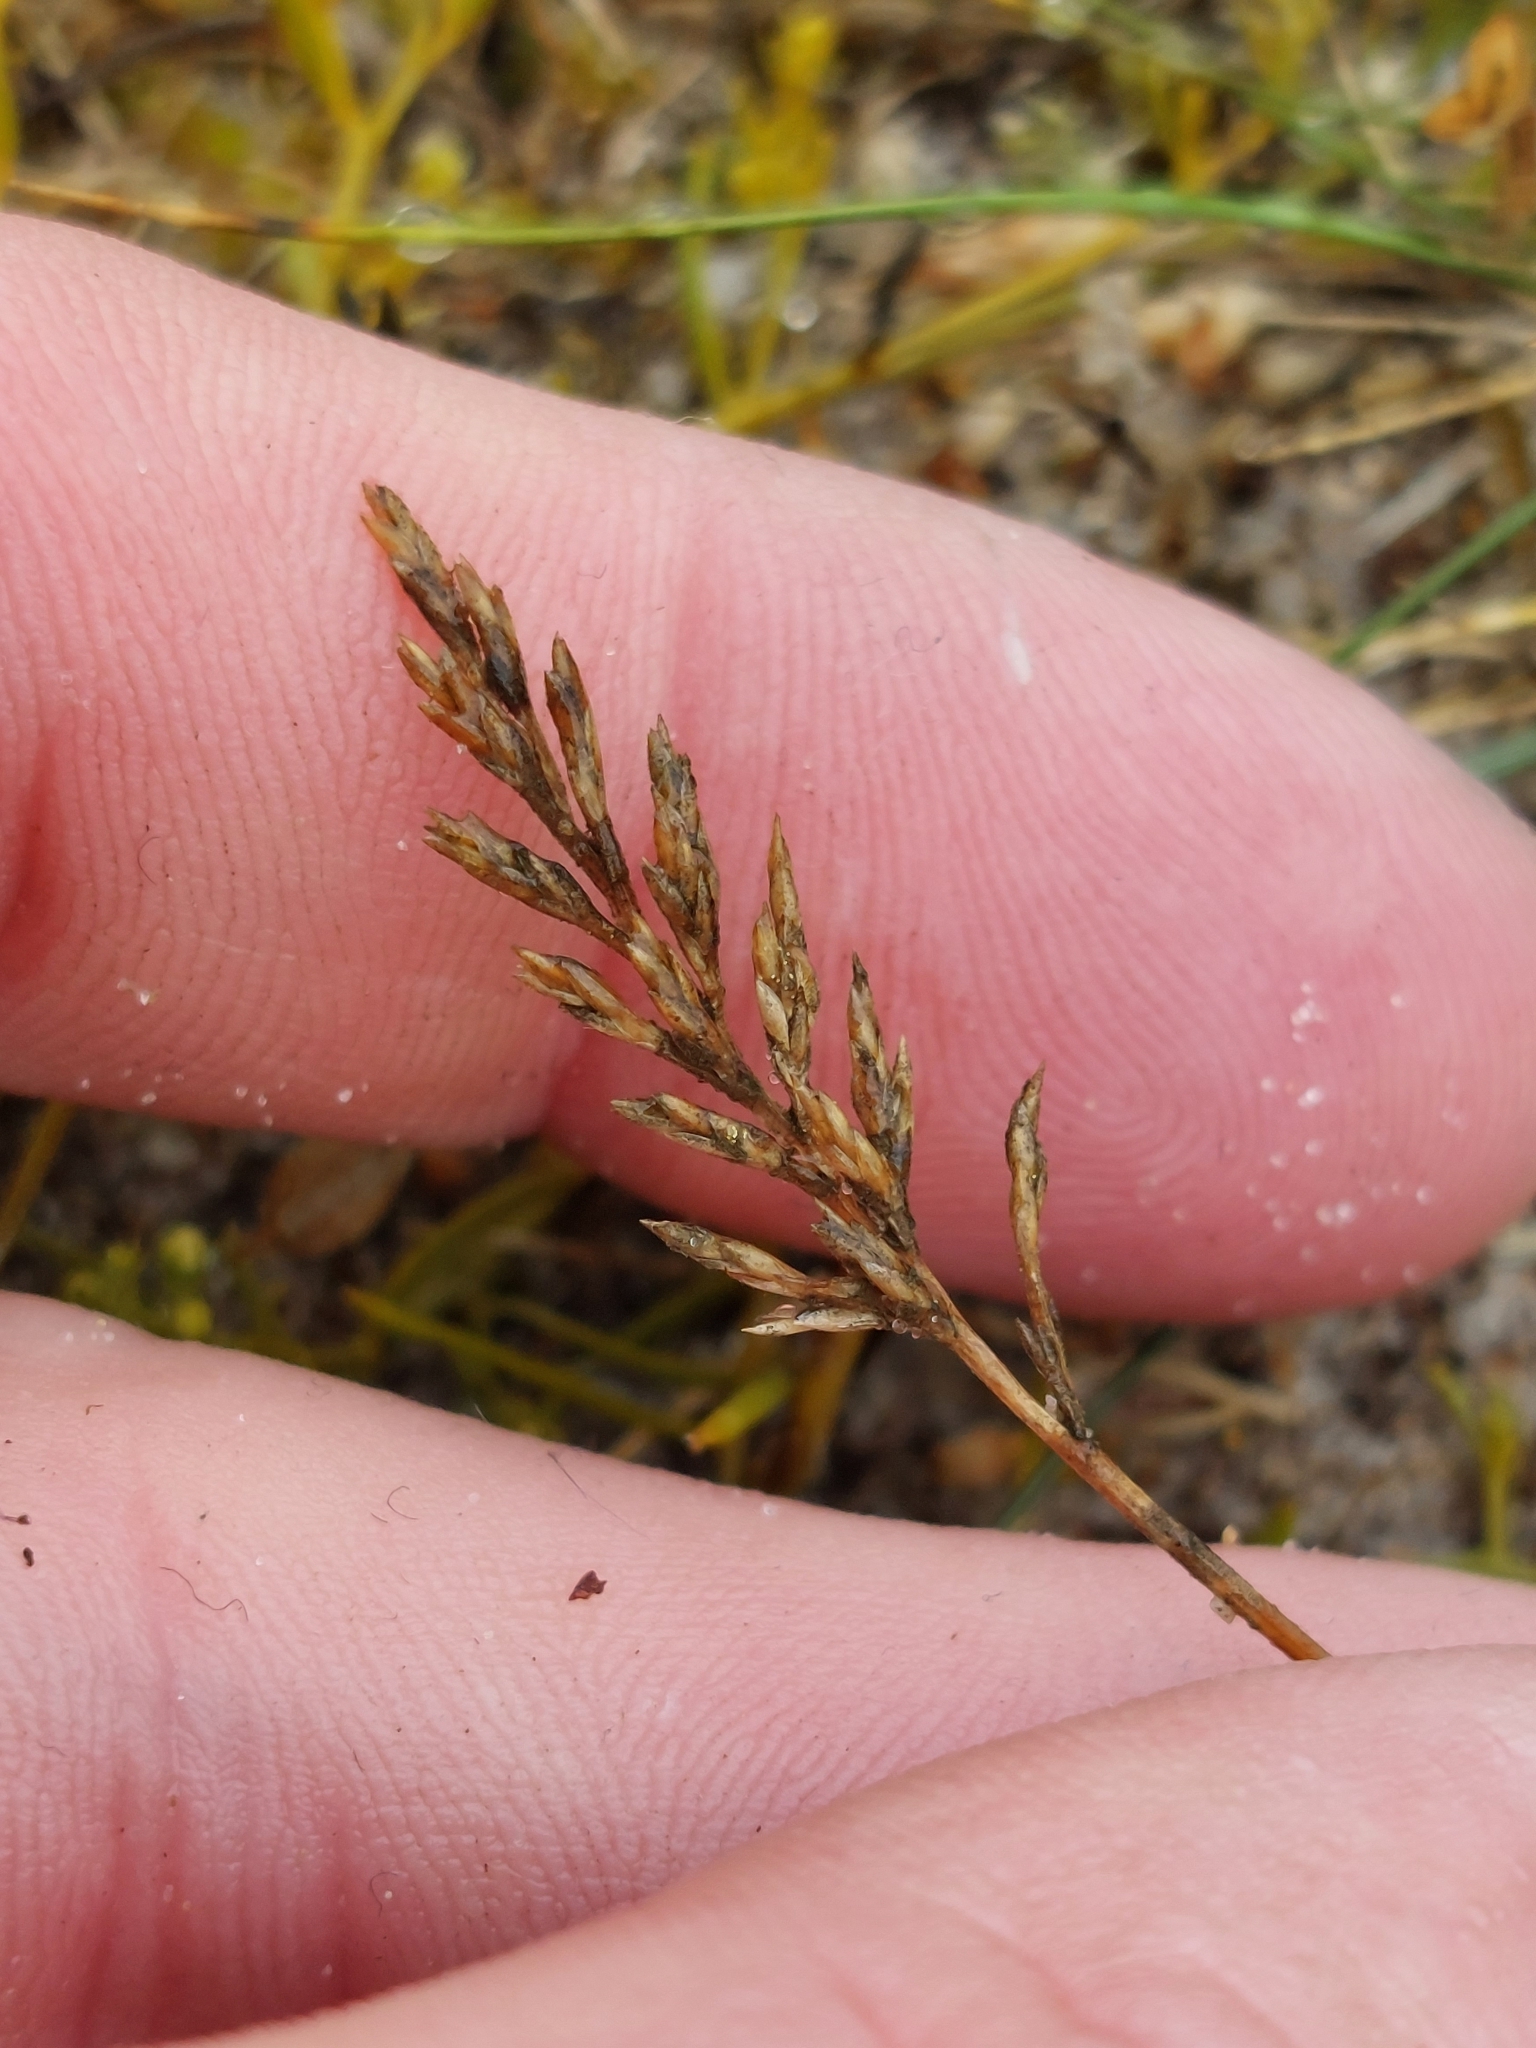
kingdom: Plantae
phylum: Tracheophyta
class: Liliopsida
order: Poales
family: Poaceae
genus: Catapodium
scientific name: Catapodium rigidum
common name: Fern-grass
